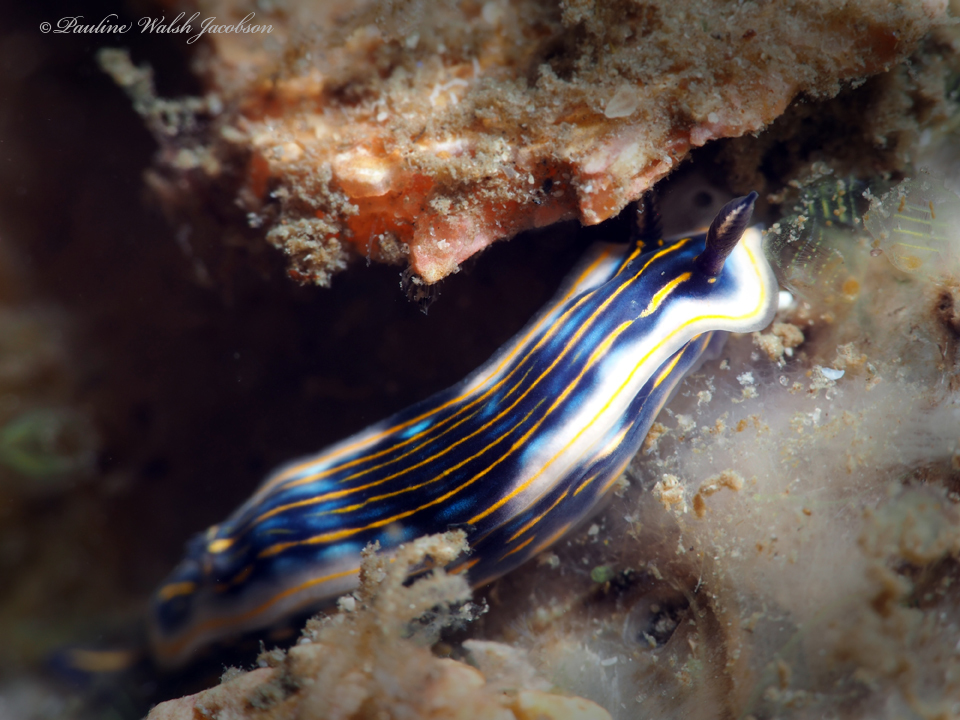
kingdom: Animalia
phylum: Mollusca
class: Gastropoda
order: Nudibranchia
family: Chromodorididae
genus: Felimare
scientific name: Felimare ruthae
